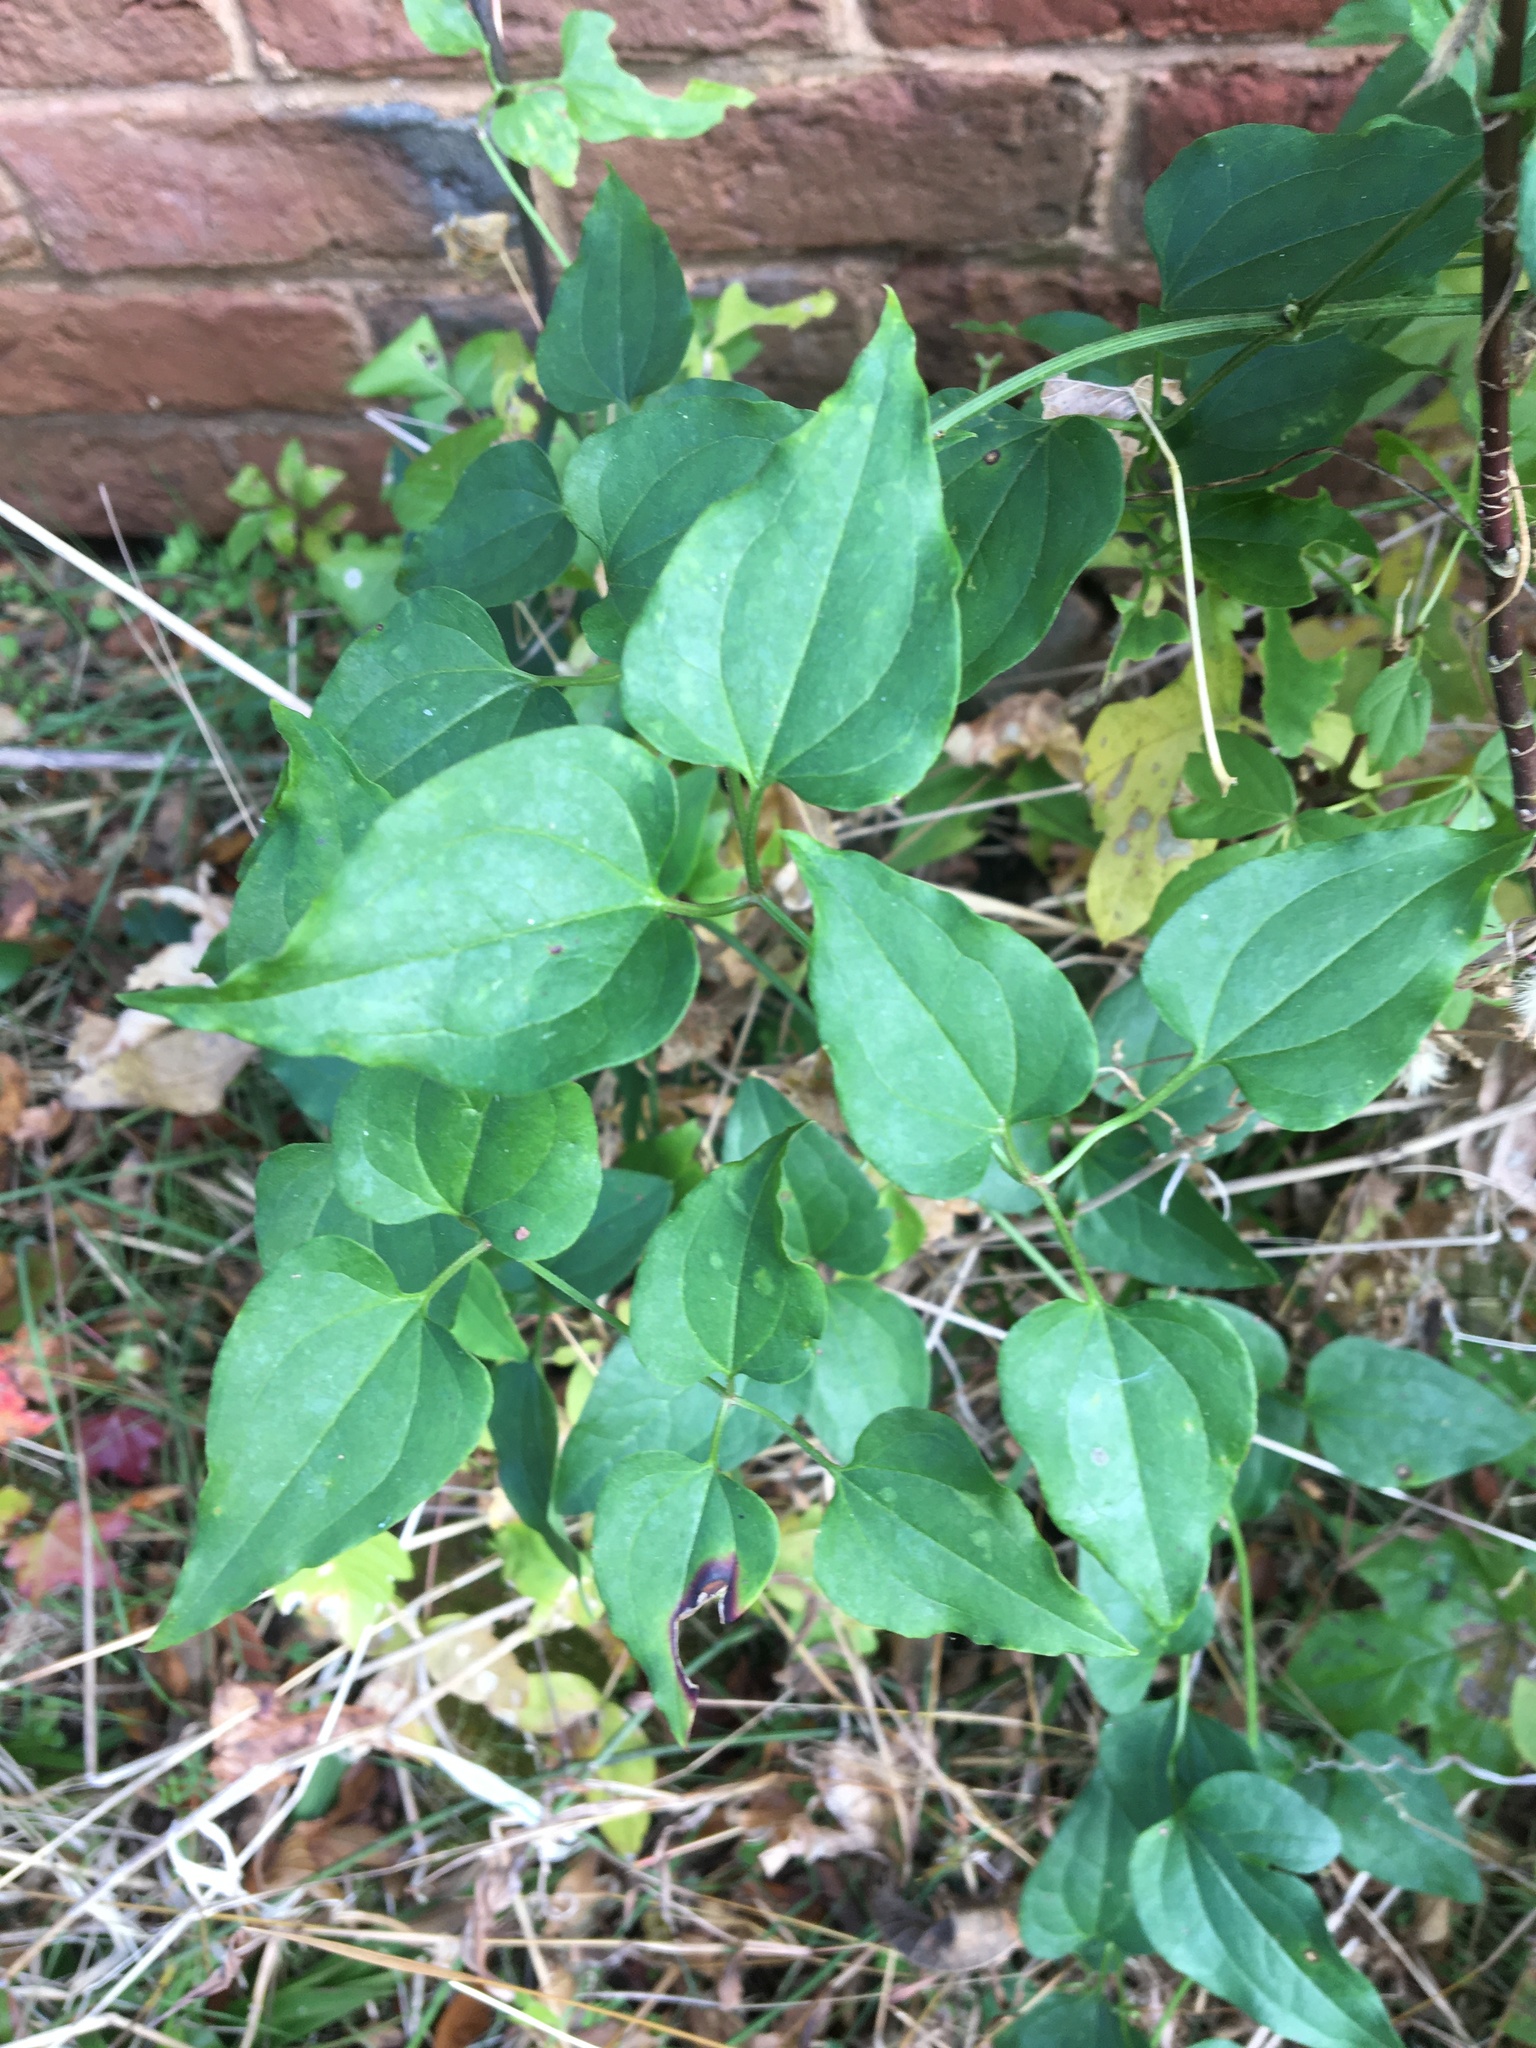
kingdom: Plantae
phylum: Tracheophyta
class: Magnoliopsida
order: Ranunculales
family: Ranunculaceae
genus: Clematis
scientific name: Clematis terniflora
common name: Sweet autumn clematis
